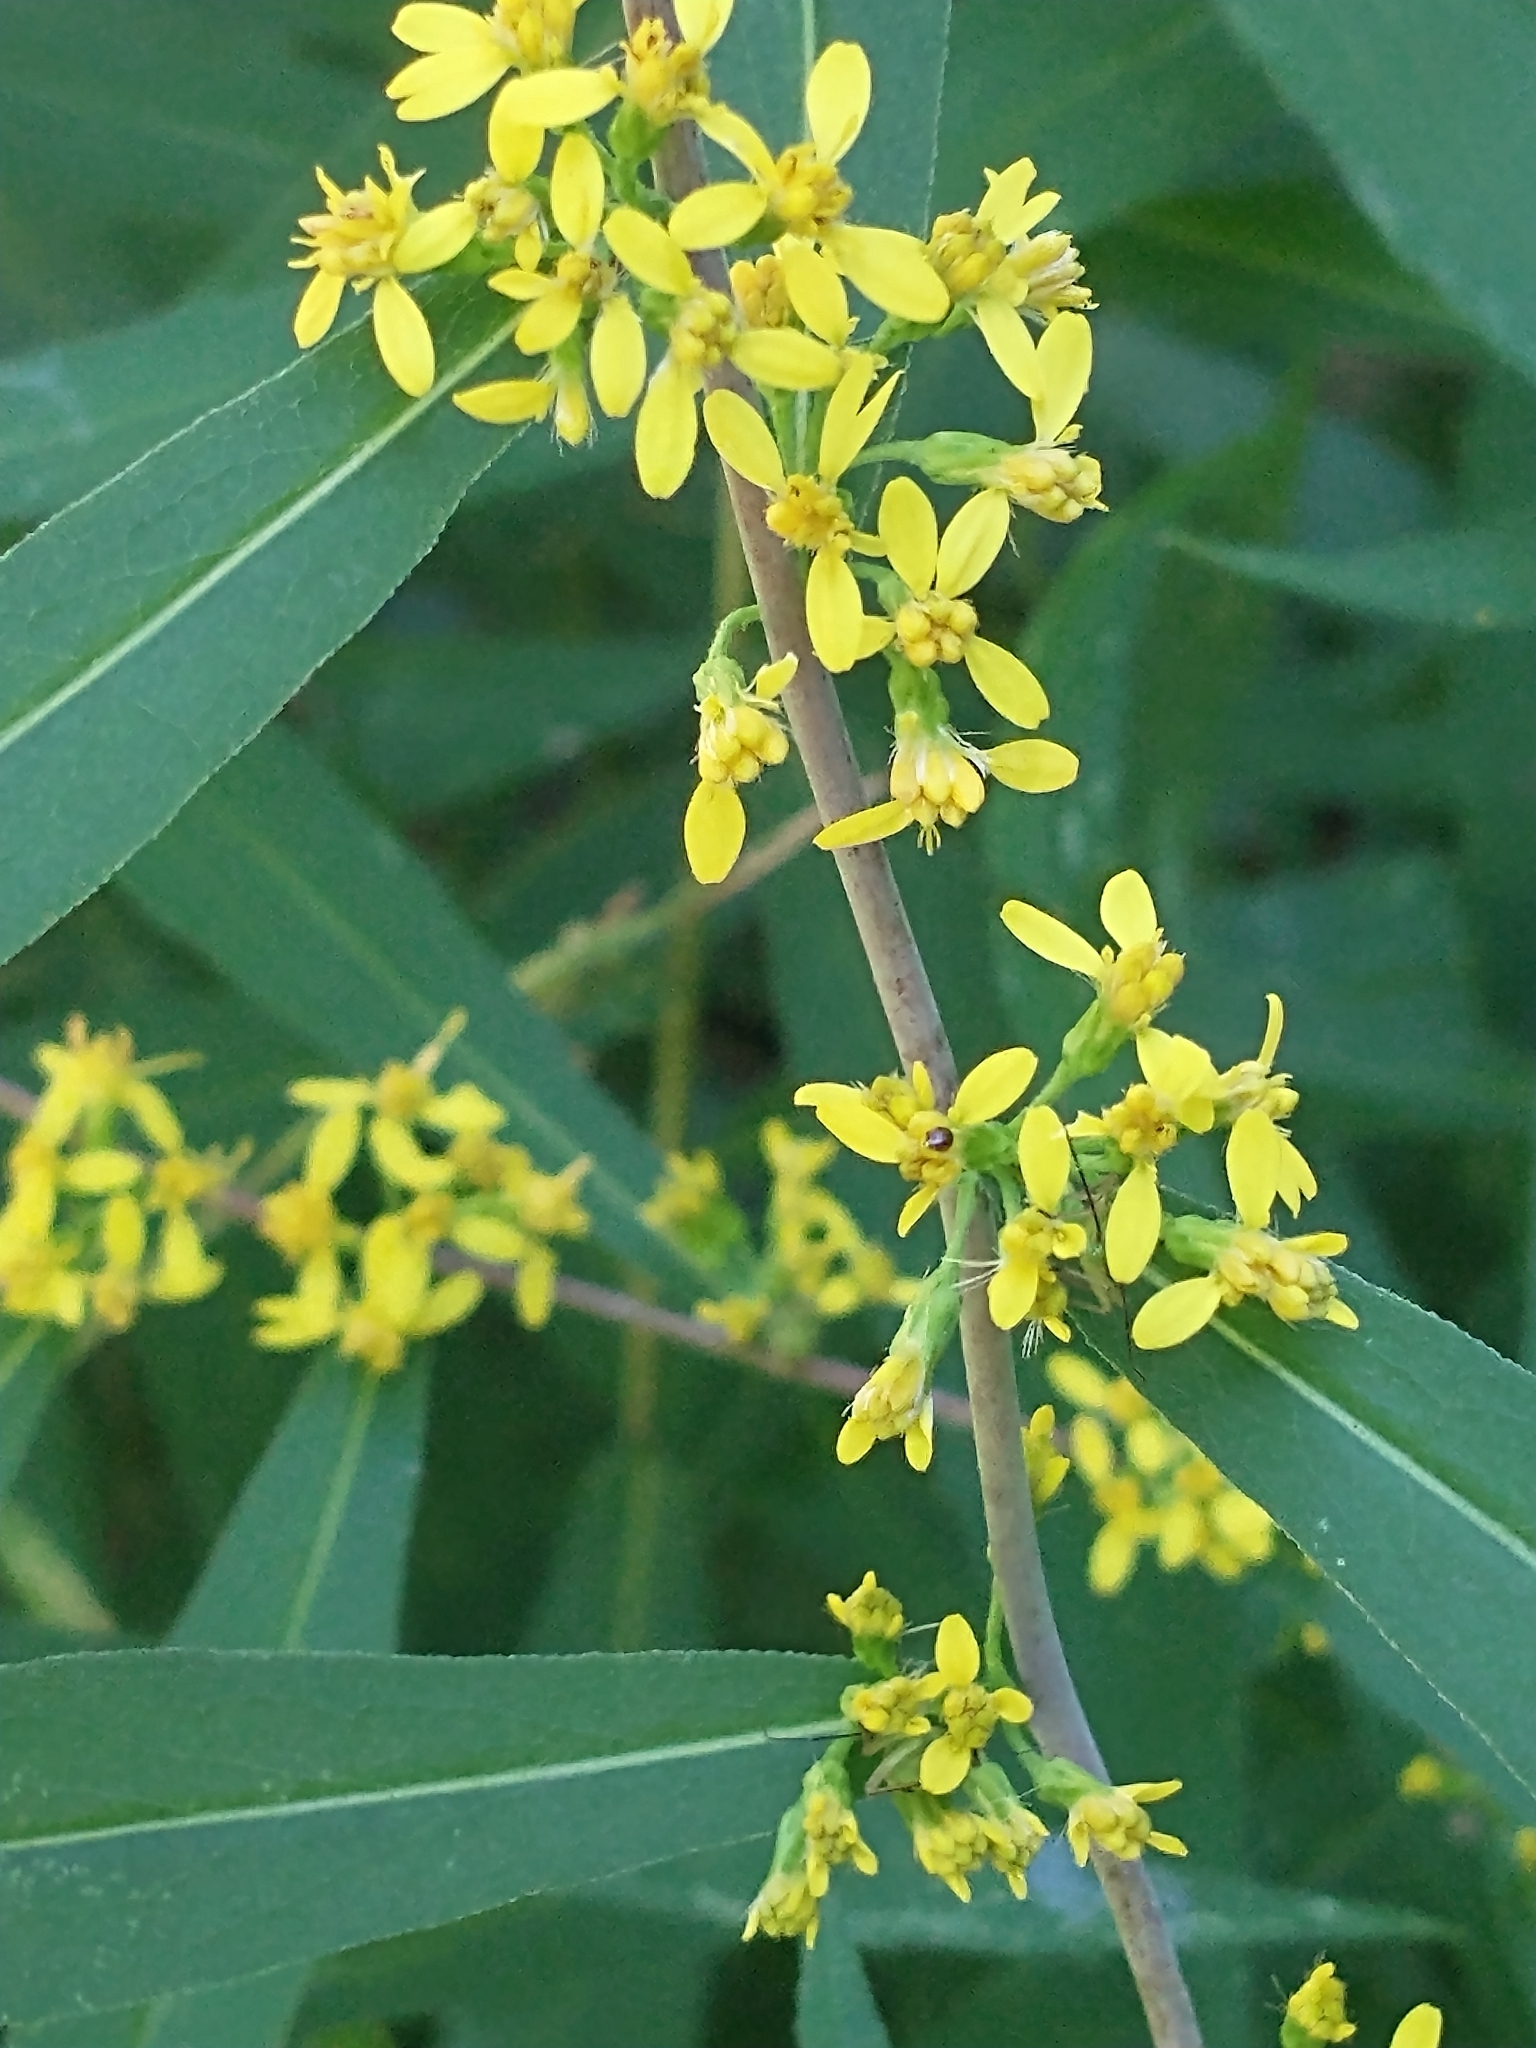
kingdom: Plantae
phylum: Tracheophyta
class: Magnoliopsida
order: Asterales
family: Asteraceae
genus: Solidago
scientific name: Solidago caesia
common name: Woodland goldenrod
